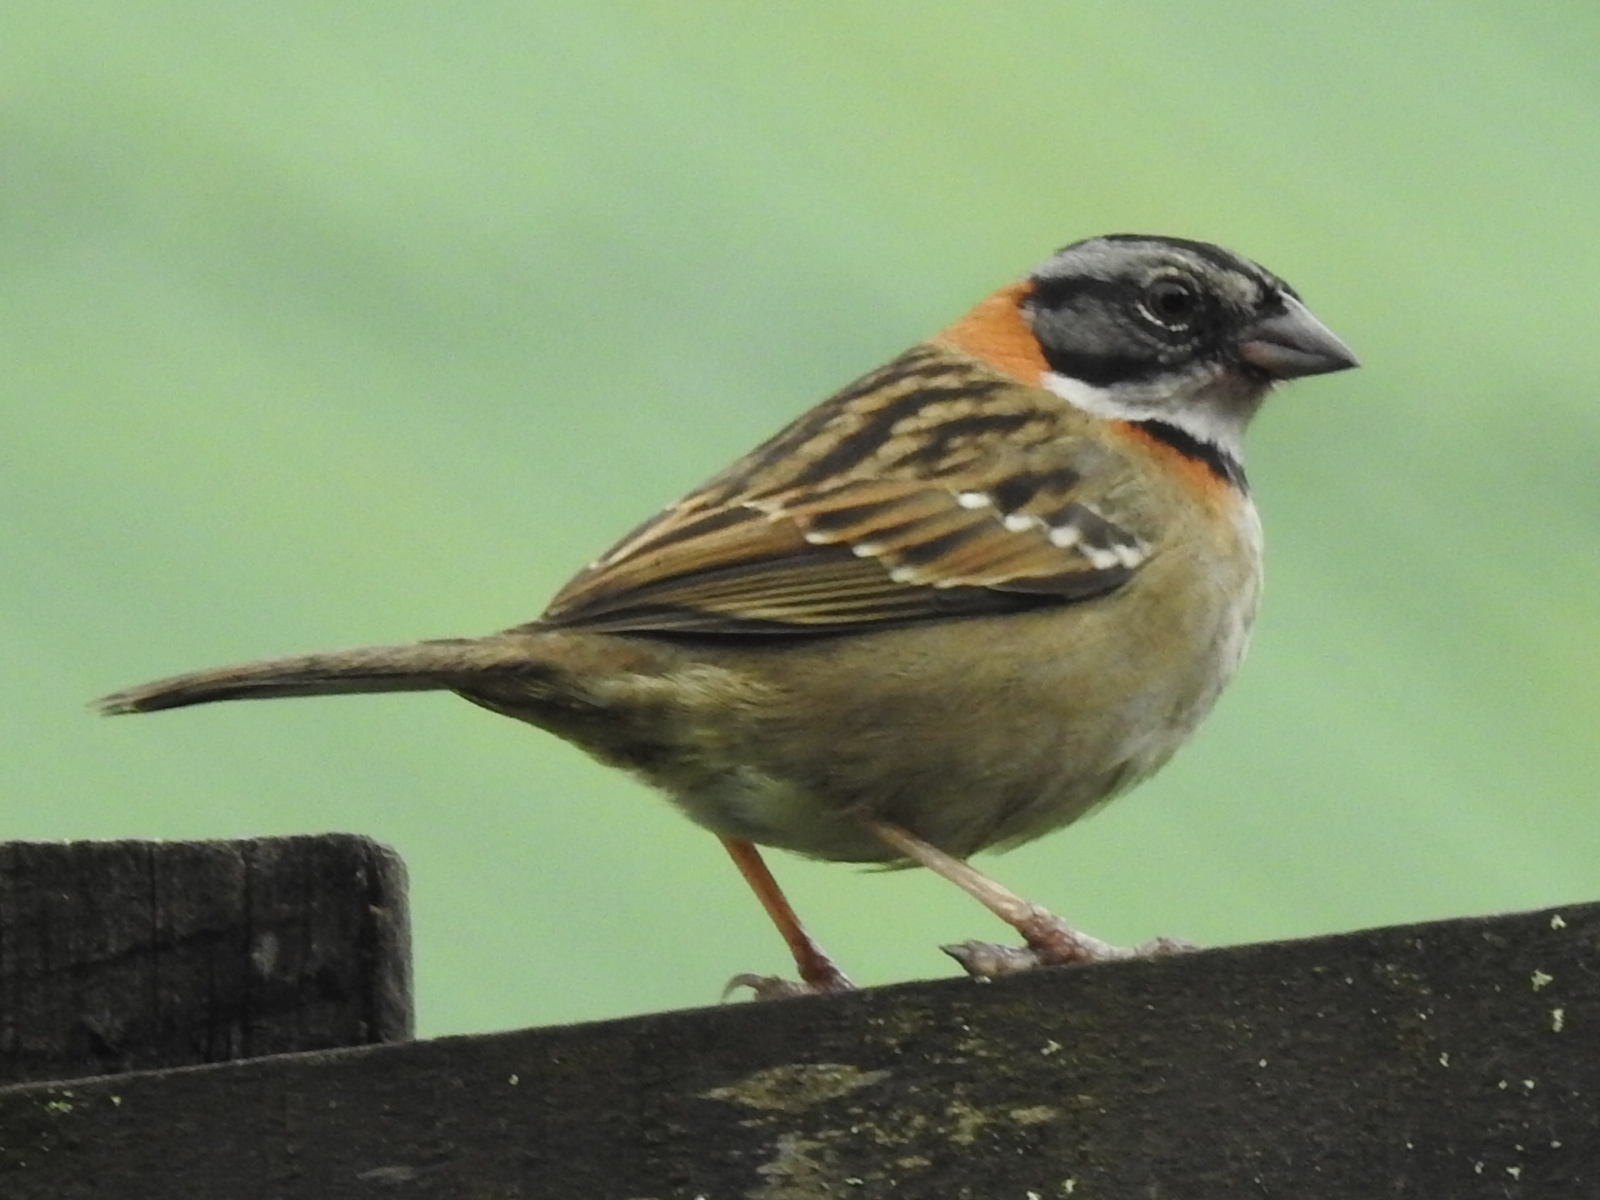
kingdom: Animalia
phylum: Chordata
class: Aves
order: Passeriformes
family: Passerellidae
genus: Zonotrichia
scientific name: Zonotrichia capensis
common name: Rufous-collared sparrow
